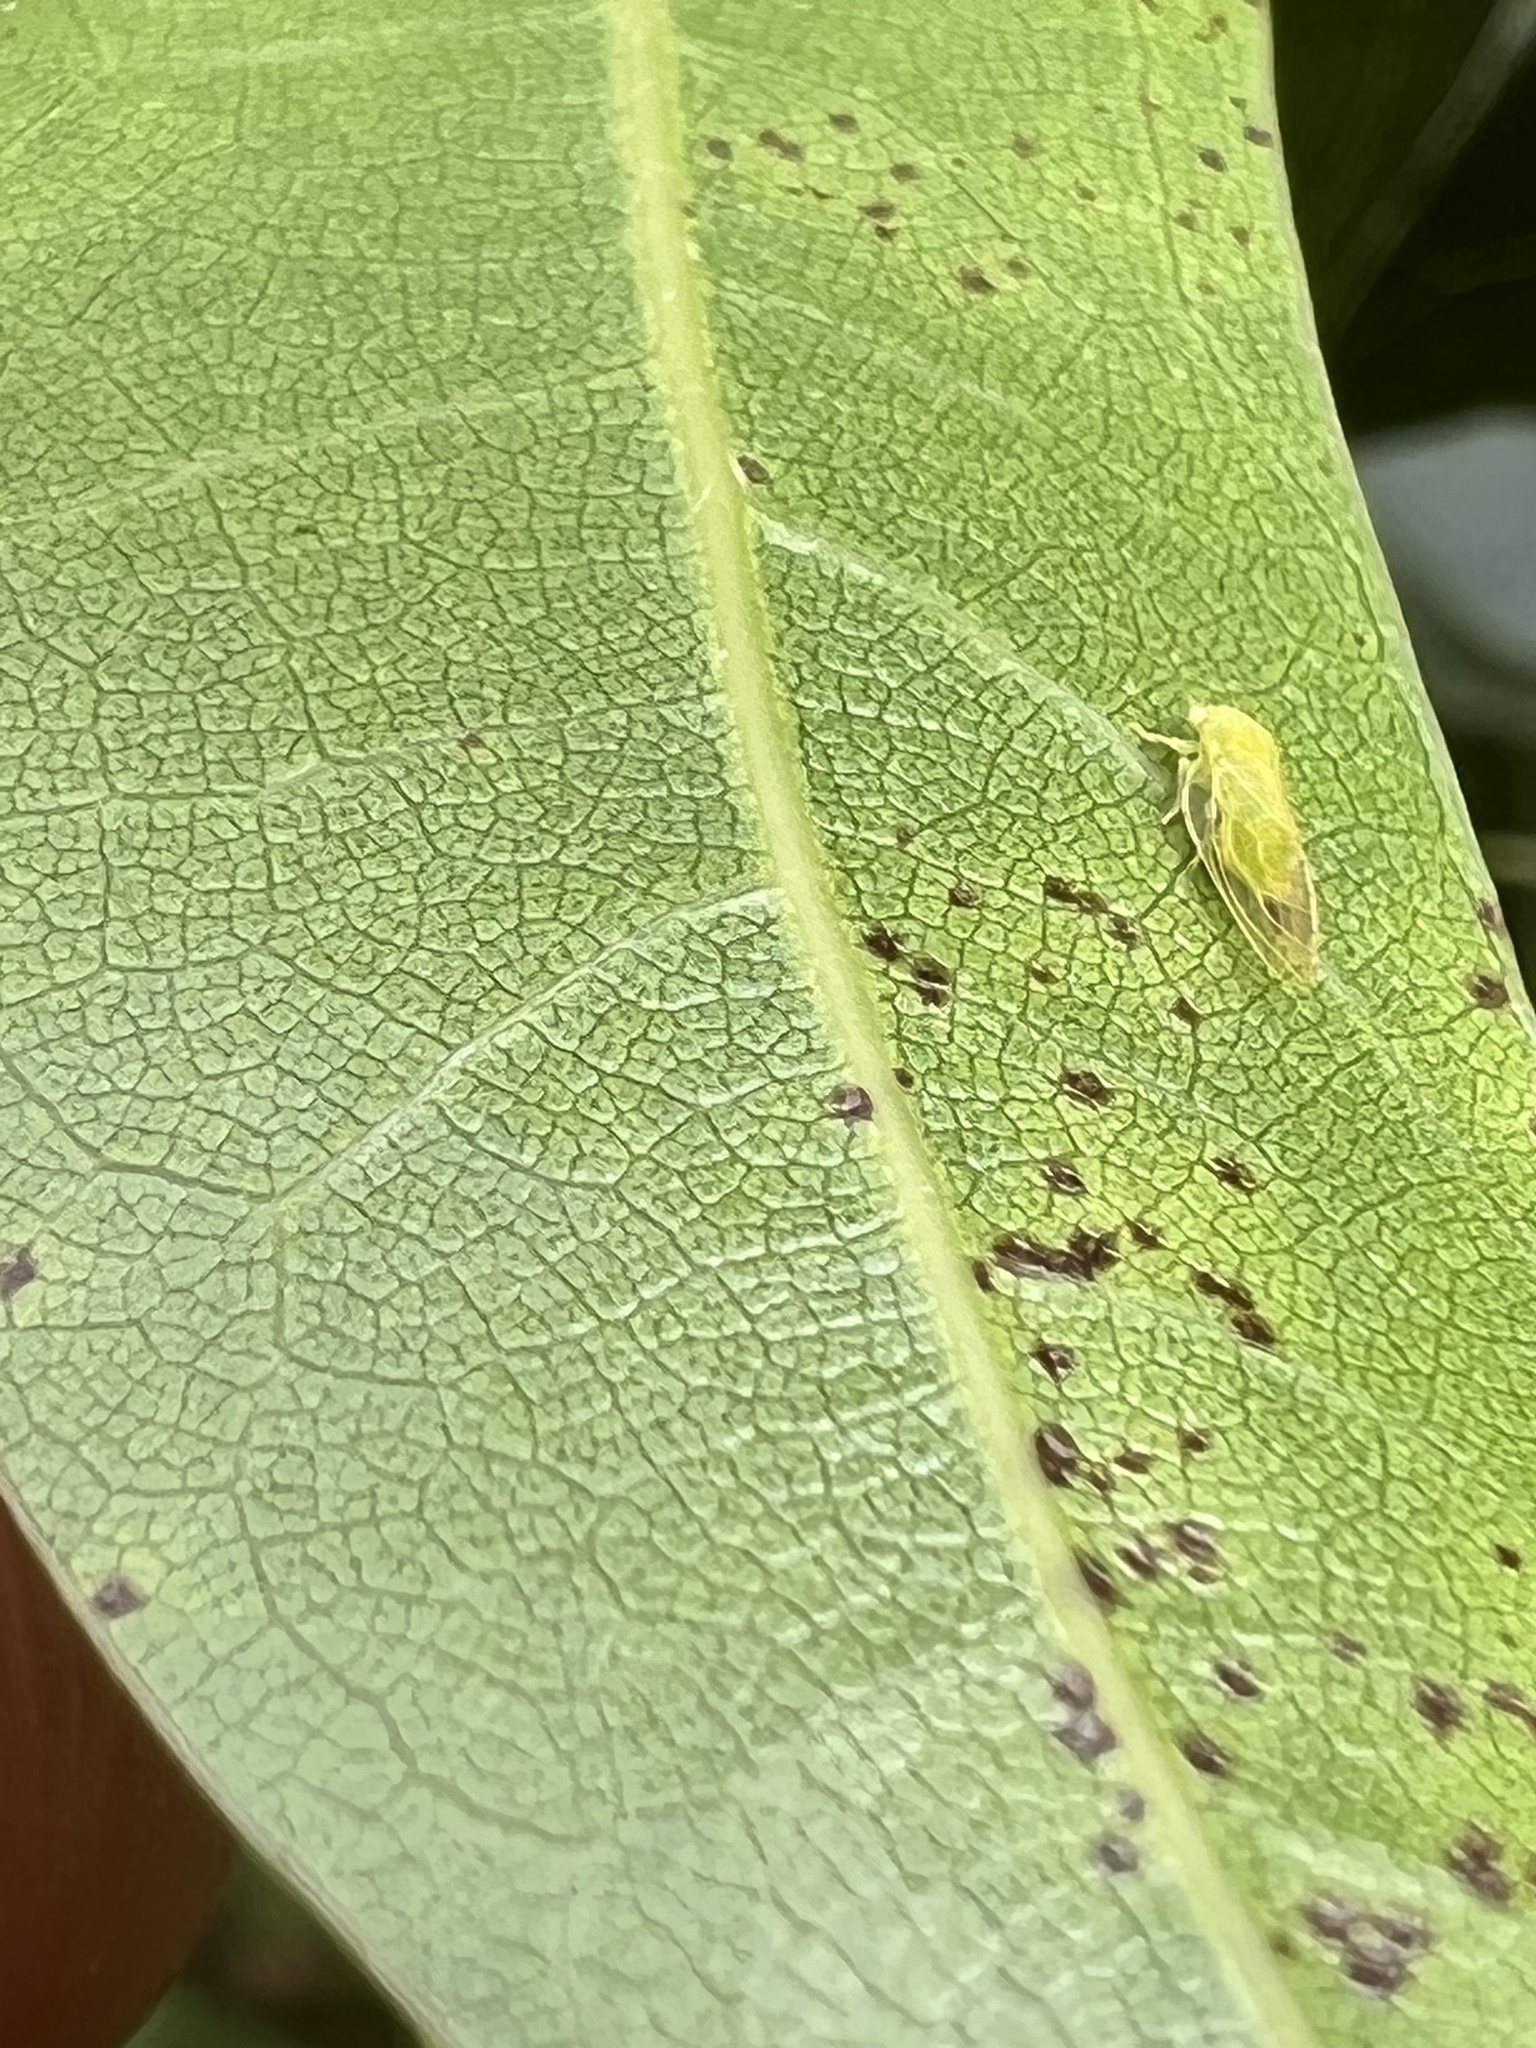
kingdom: Animalia
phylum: Arthropoda
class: Insecta
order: Hemiptera
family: Psyllidae
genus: Spanioneura
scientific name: Spanioneura fonscolombii
